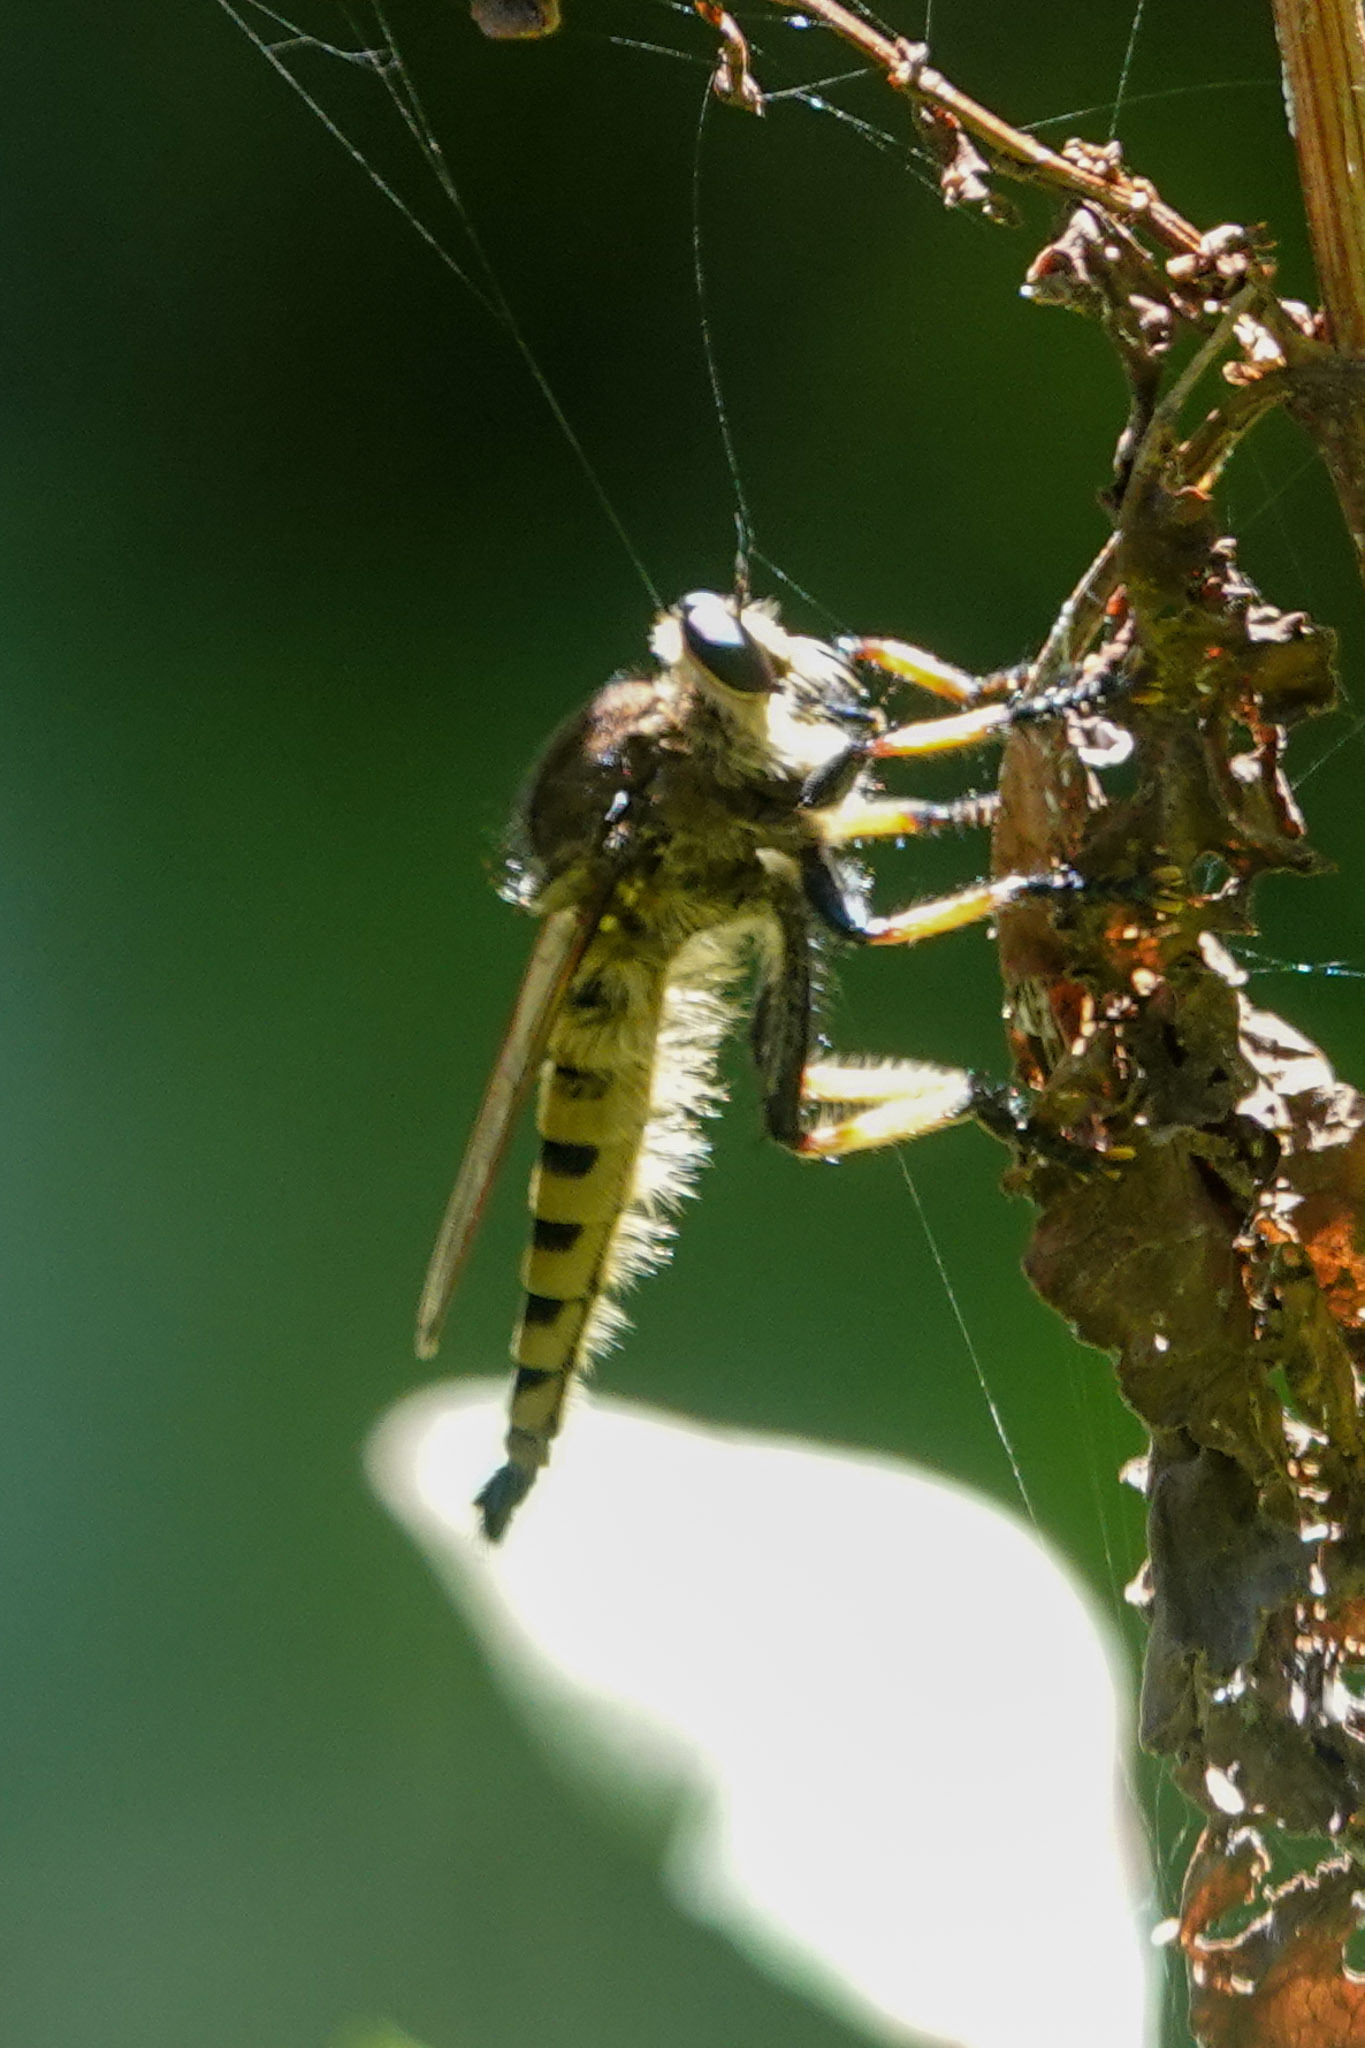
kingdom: Animalia
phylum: Arthropoda
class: Insecta
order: Diptera
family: Asilidae
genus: Promachus
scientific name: Promachus rufipes
